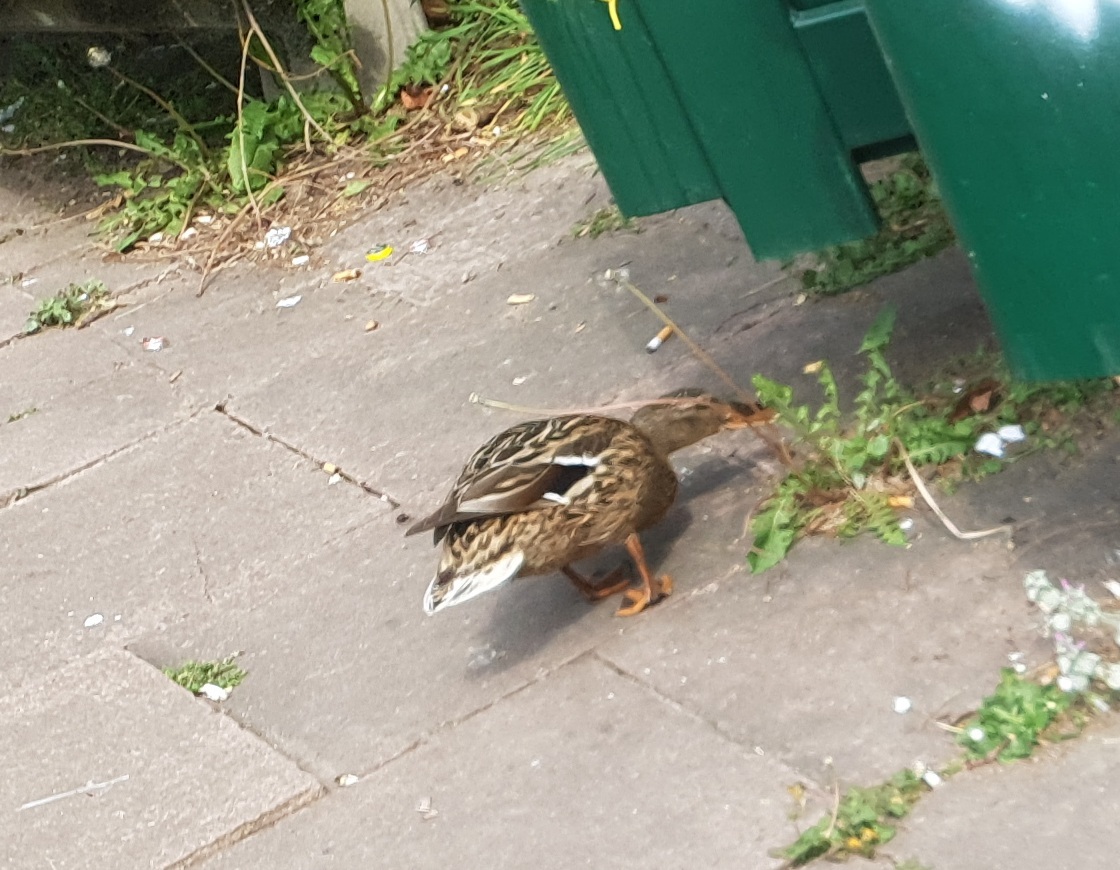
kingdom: Animalia
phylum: Chordata
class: Aves
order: Anseriformes
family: Anatidae
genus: Anas
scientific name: Anas platyrhynchos
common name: Mallard
